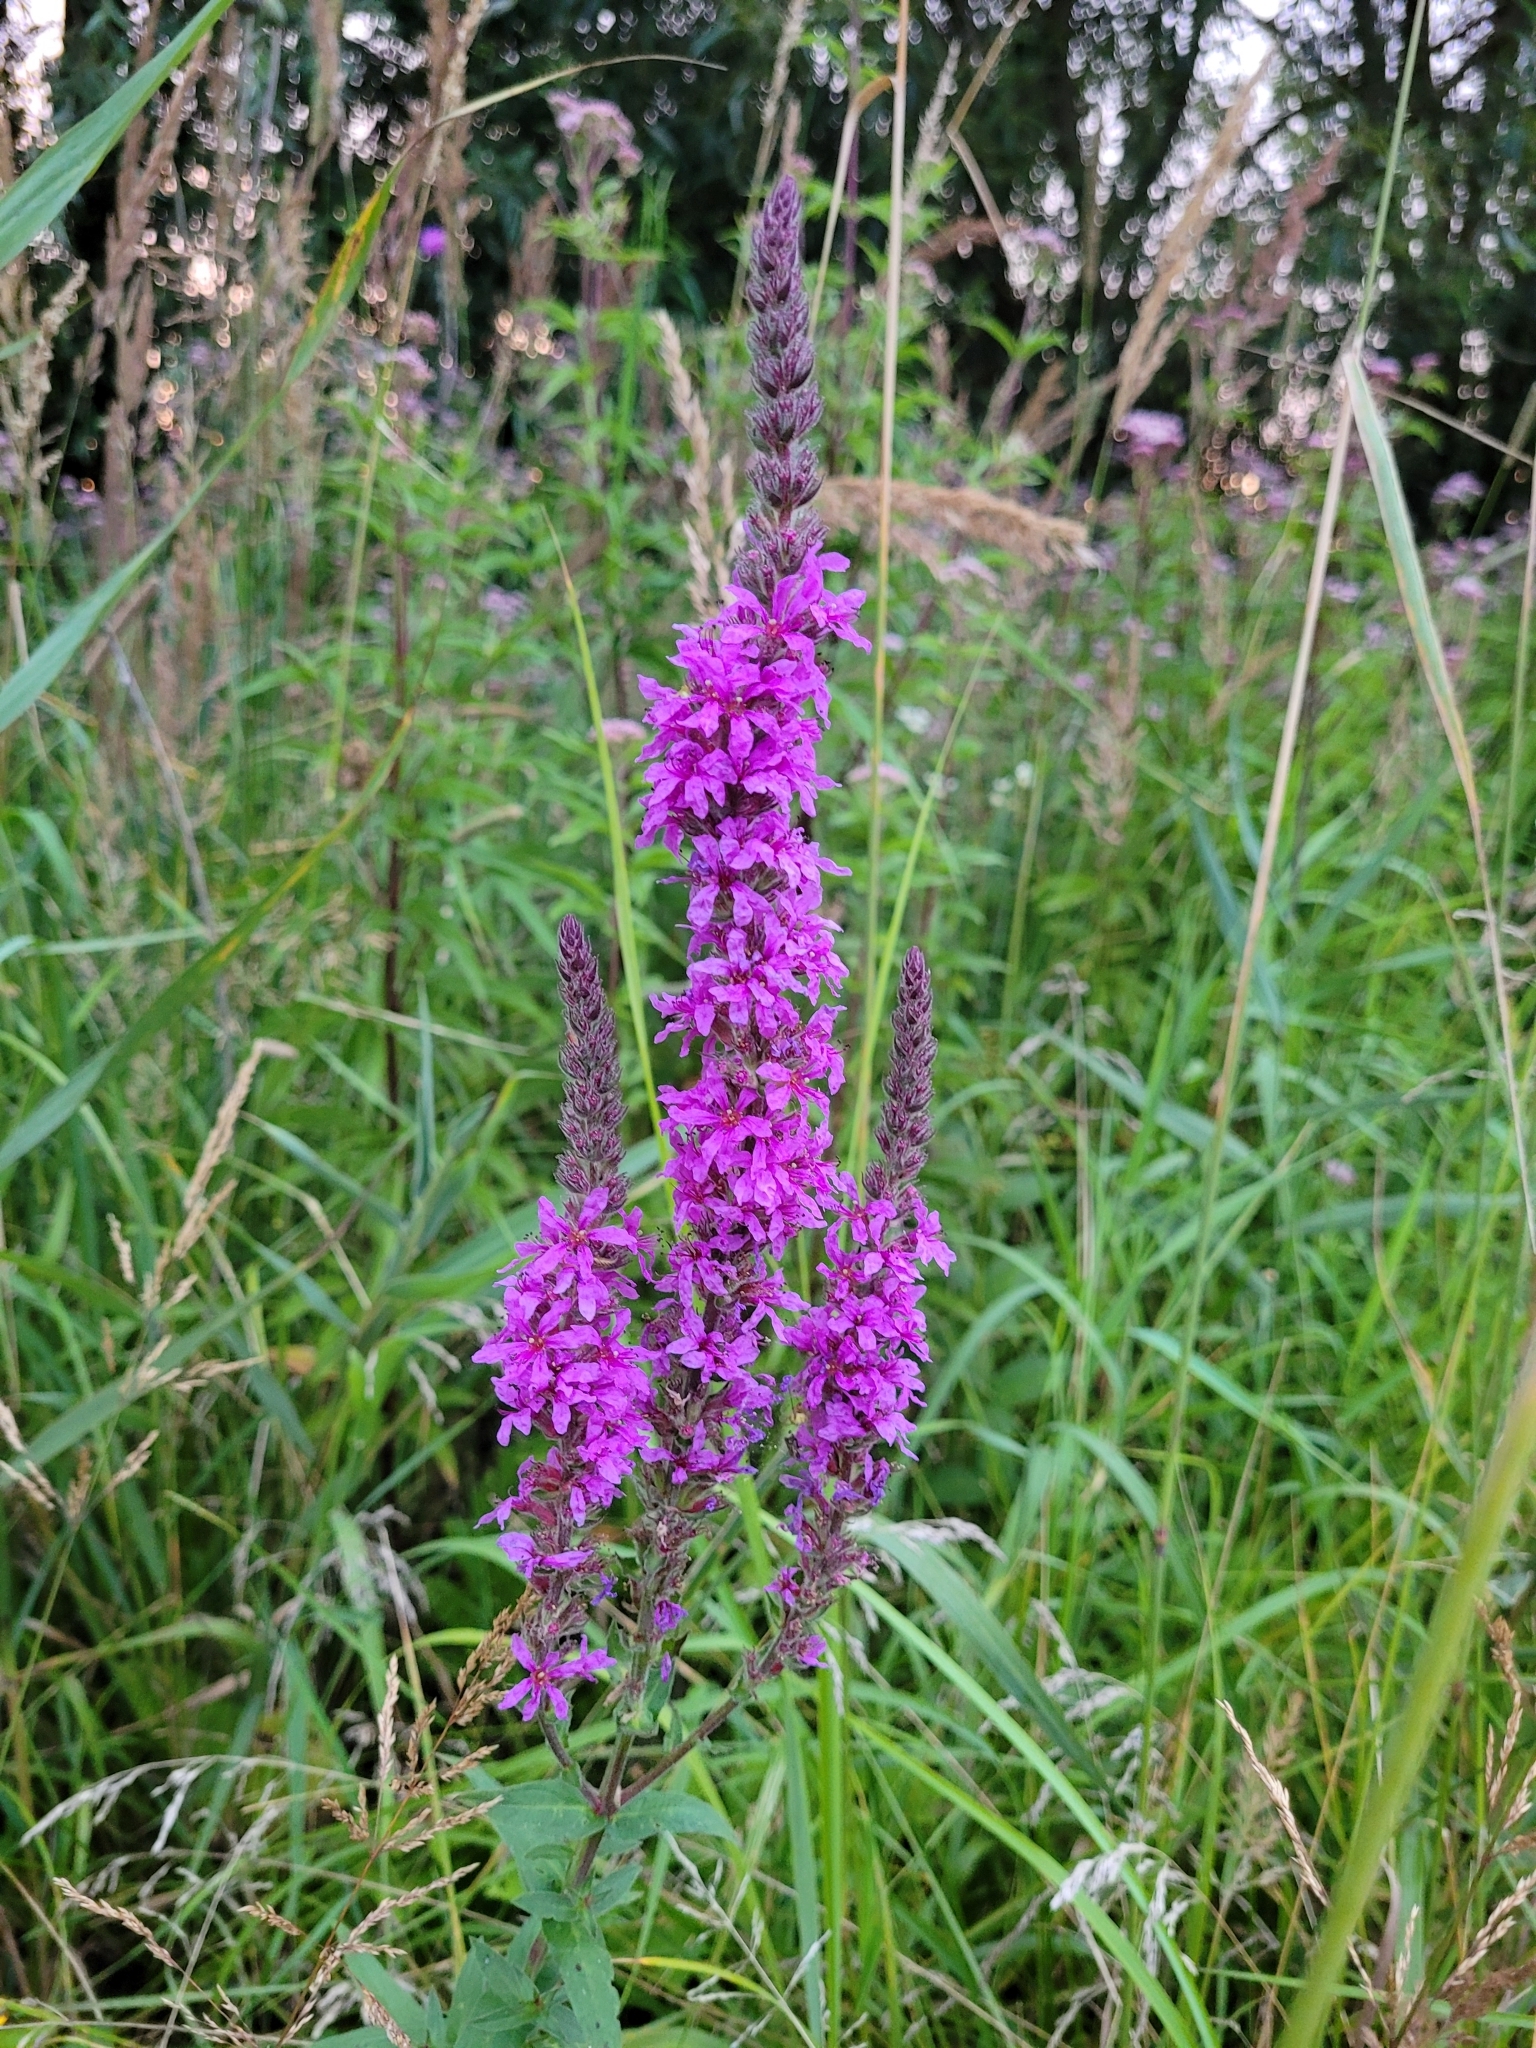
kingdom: Plantae
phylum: Tracheophyta
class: Magnoliopsida
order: Myrtales
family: Lythraceae
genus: Lythrum
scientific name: Lythrum salicaria
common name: Purple loosestrife
